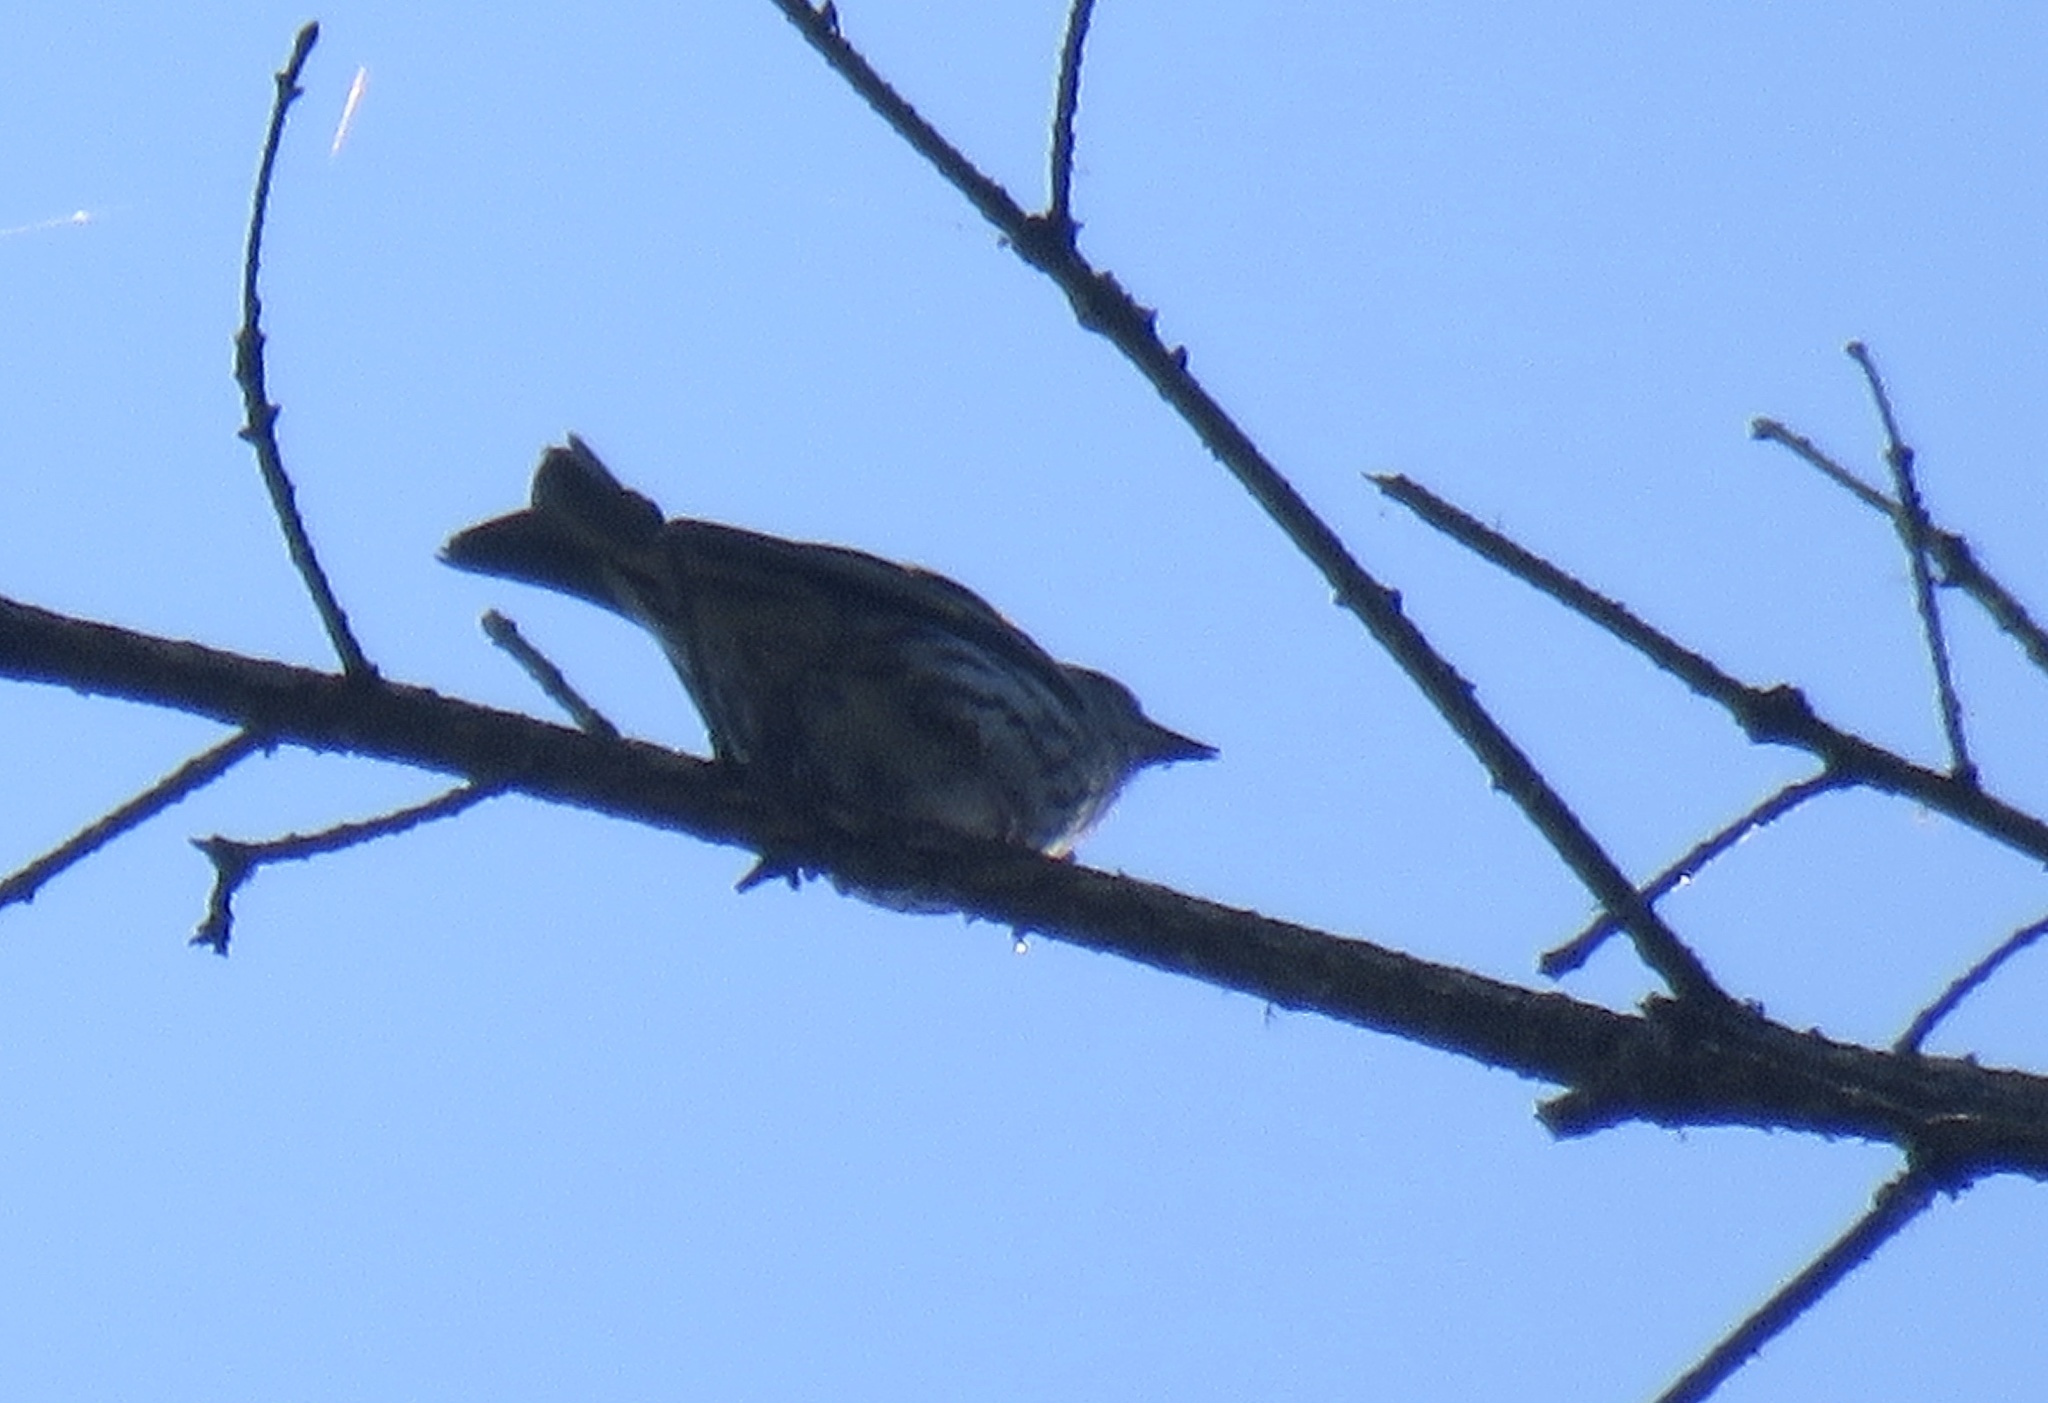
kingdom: Animalia
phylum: Chordata
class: Aves
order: Passeriformes
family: Fringillidae
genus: Spinus
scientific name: Spinus pinus
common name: Pine siskin
